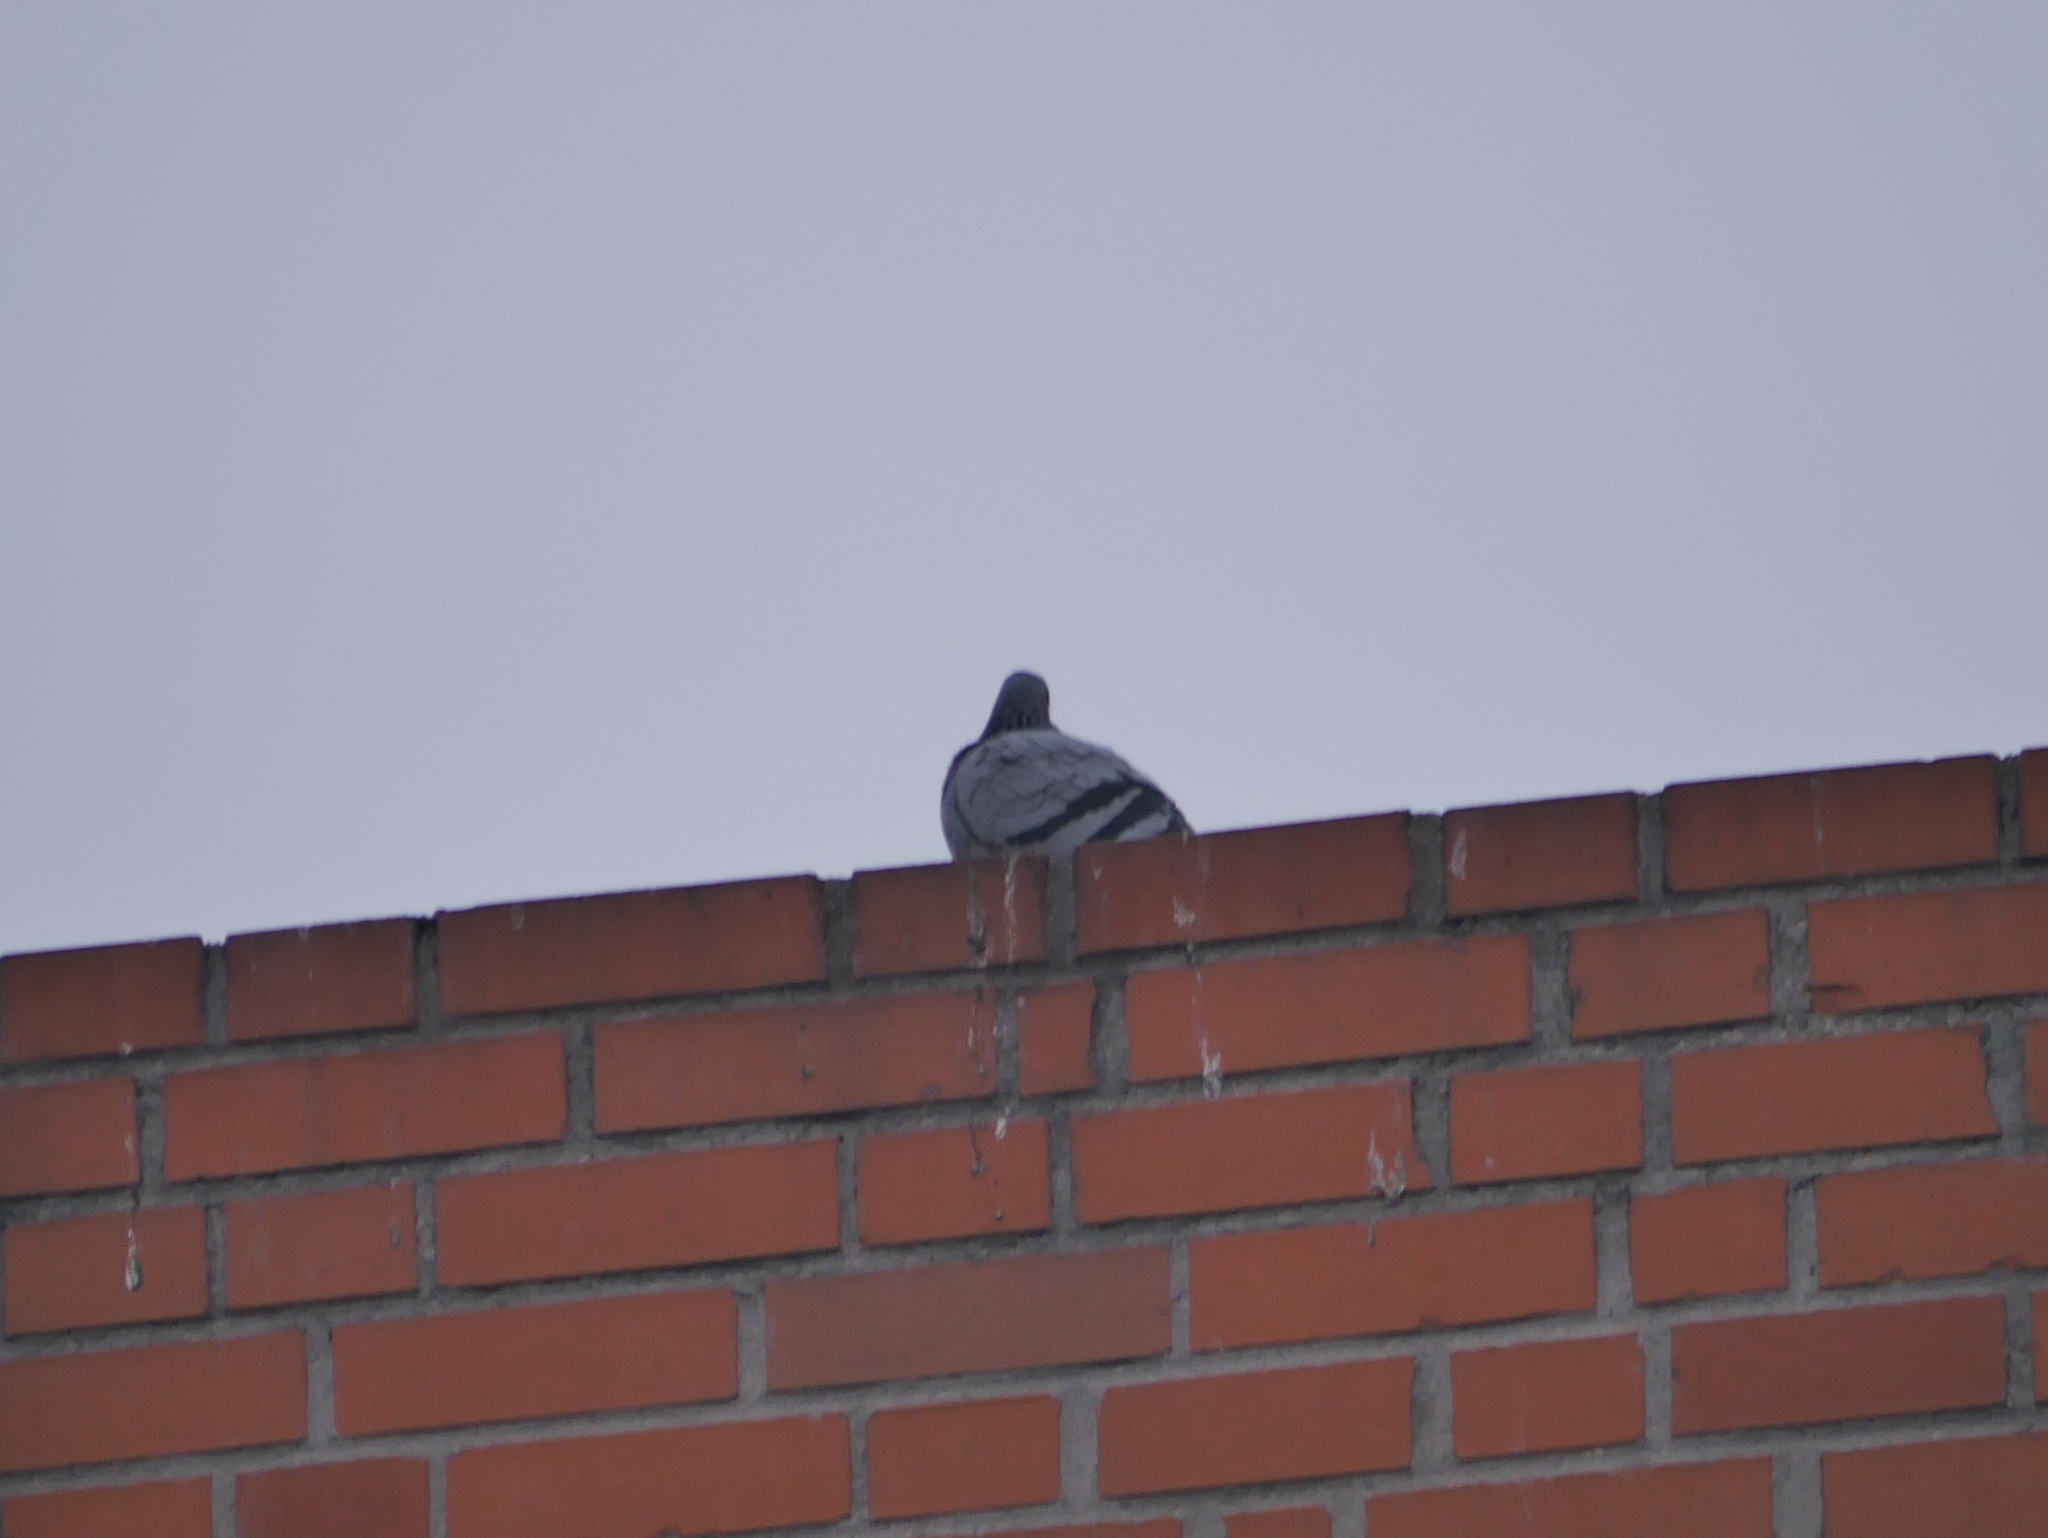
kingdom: Animalia
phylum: Chordata
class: Aves
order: Columbiformes
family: Columbidae
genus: Columba
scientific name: Columba livia
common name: Rock pigeon
